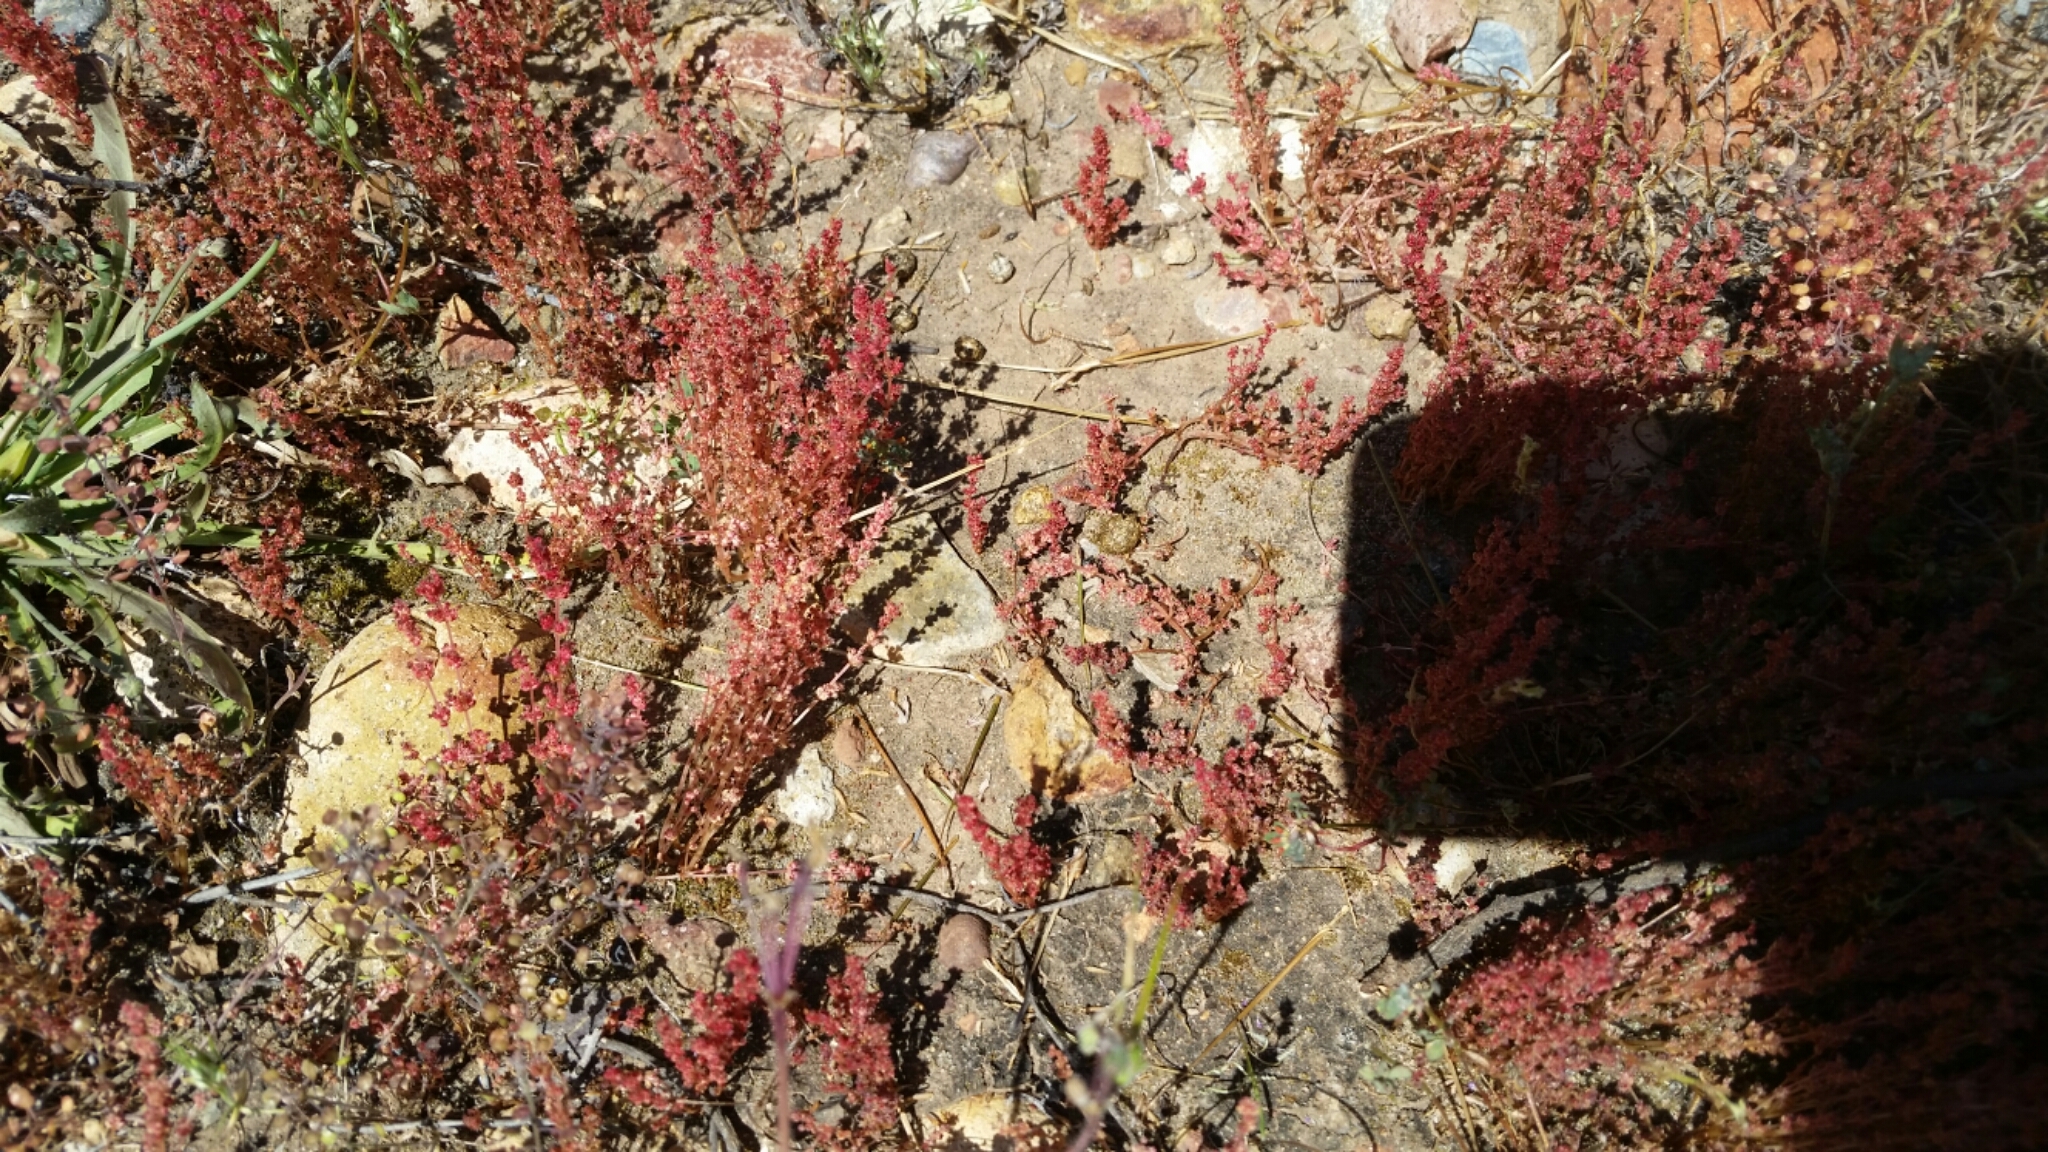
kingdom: Plantae
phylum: Tracheophyta
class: Magnoliopsida
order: Saxifragales
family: Crassulaceae
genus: Crassula
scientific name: Crassula connata
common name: Erect pygmyweed
